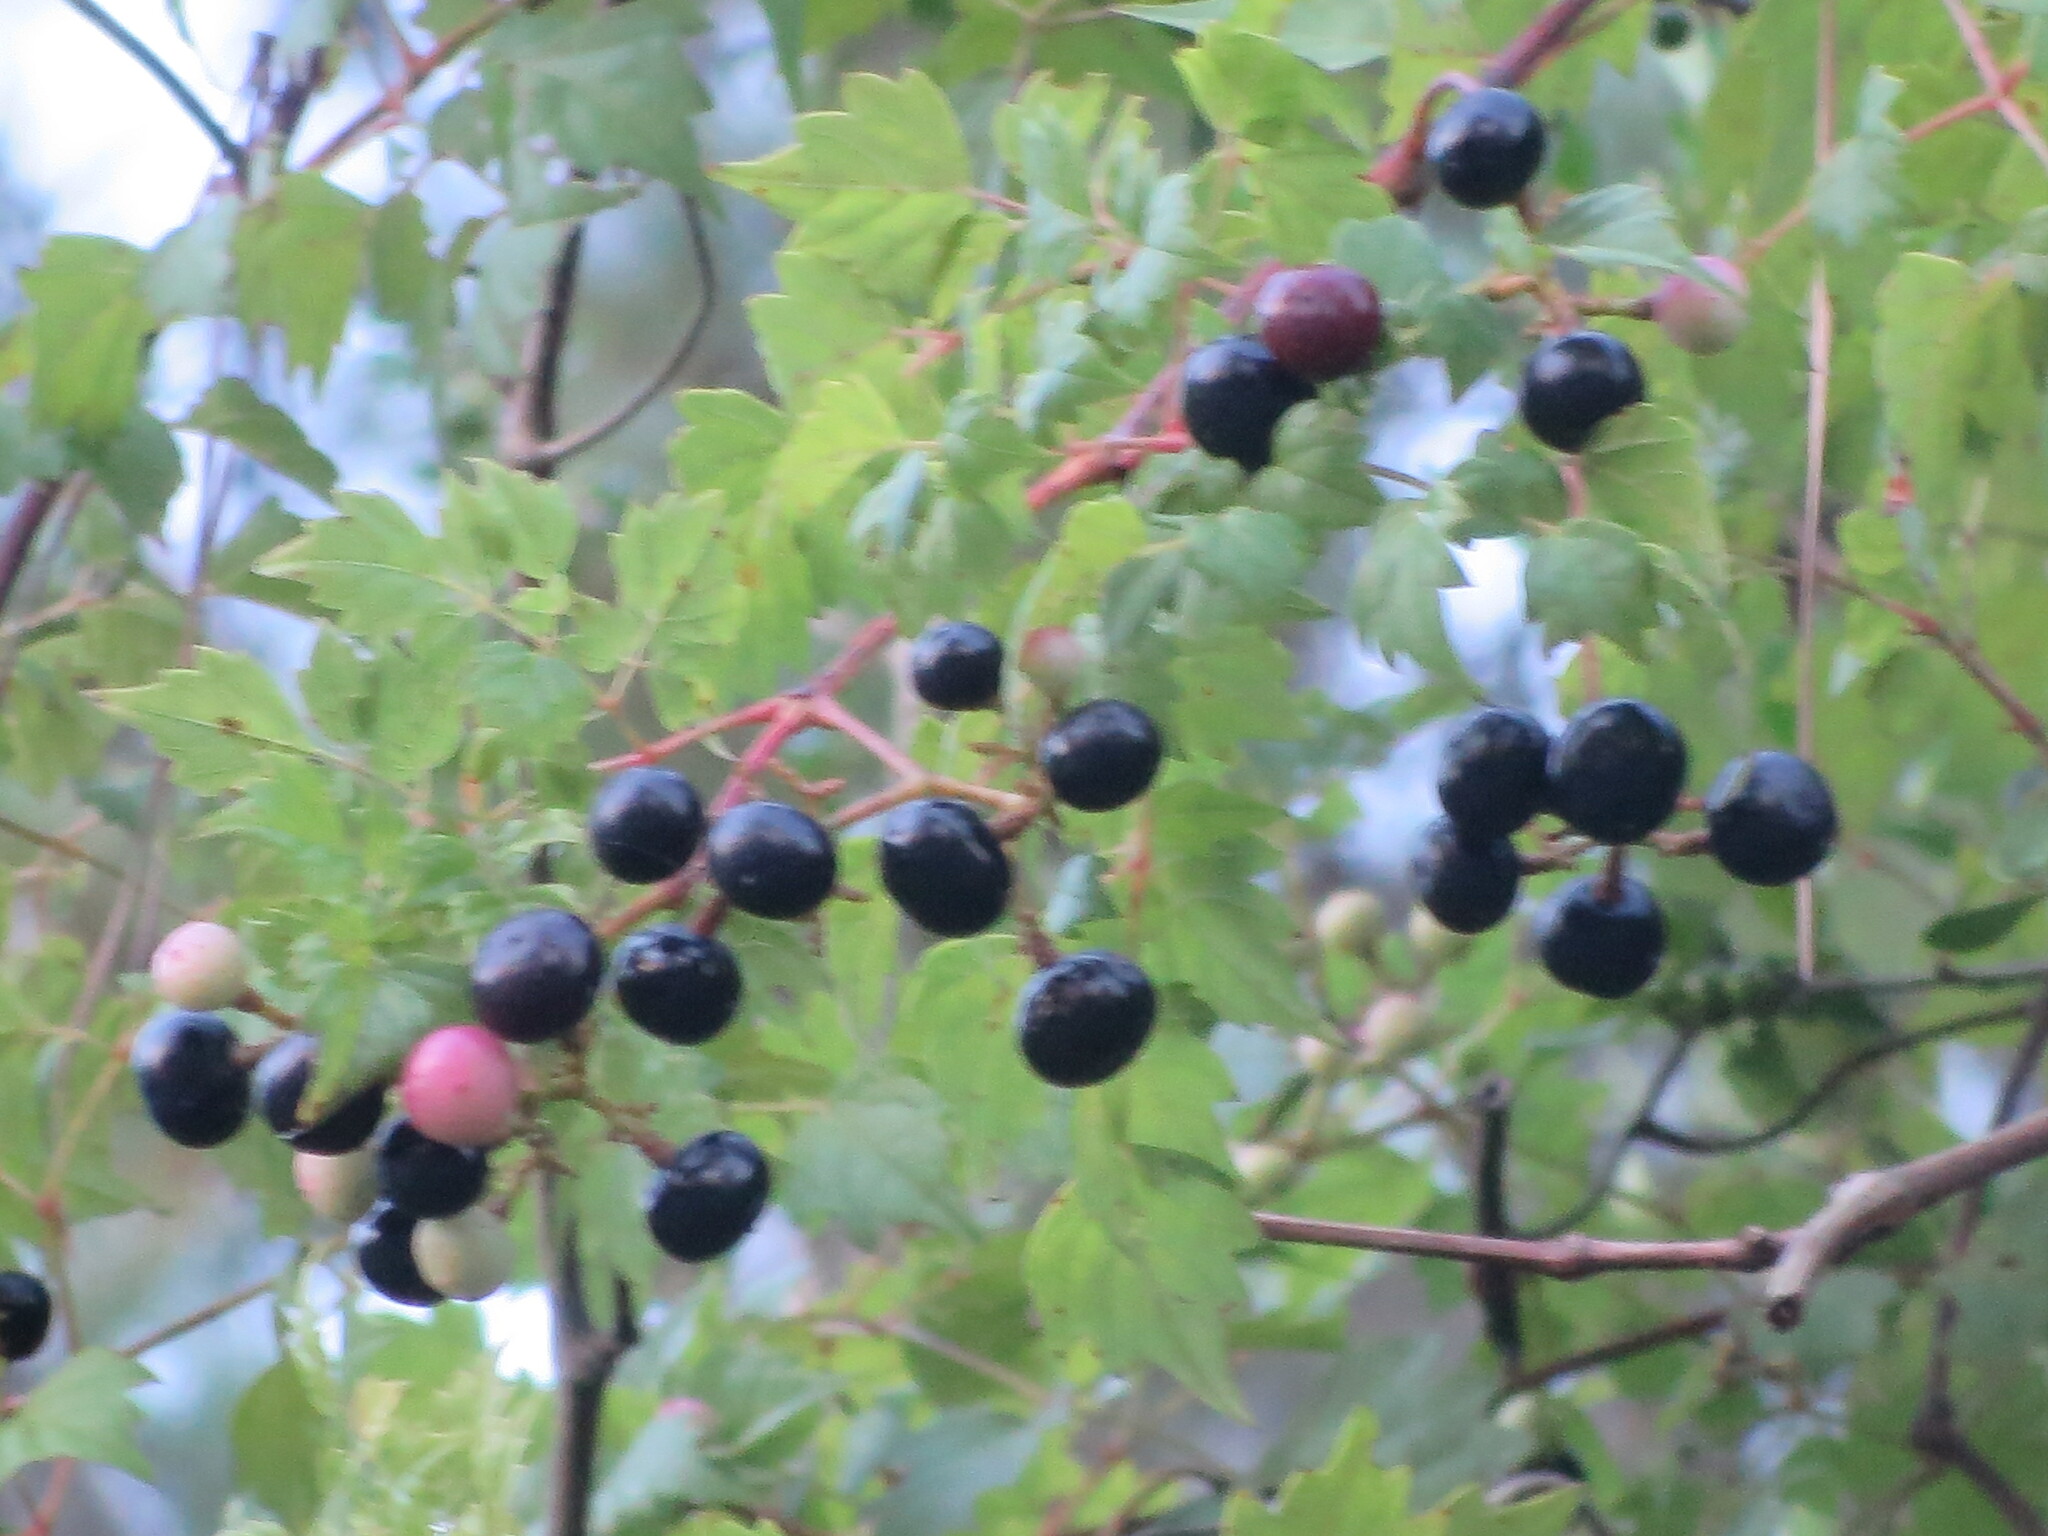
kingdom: Plantae
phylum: Tracheophyta
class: Magnoliopsida
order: Vitales
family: Vitaceae
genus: Nekemias
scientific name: Nekemias arborea
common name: Peppervine
